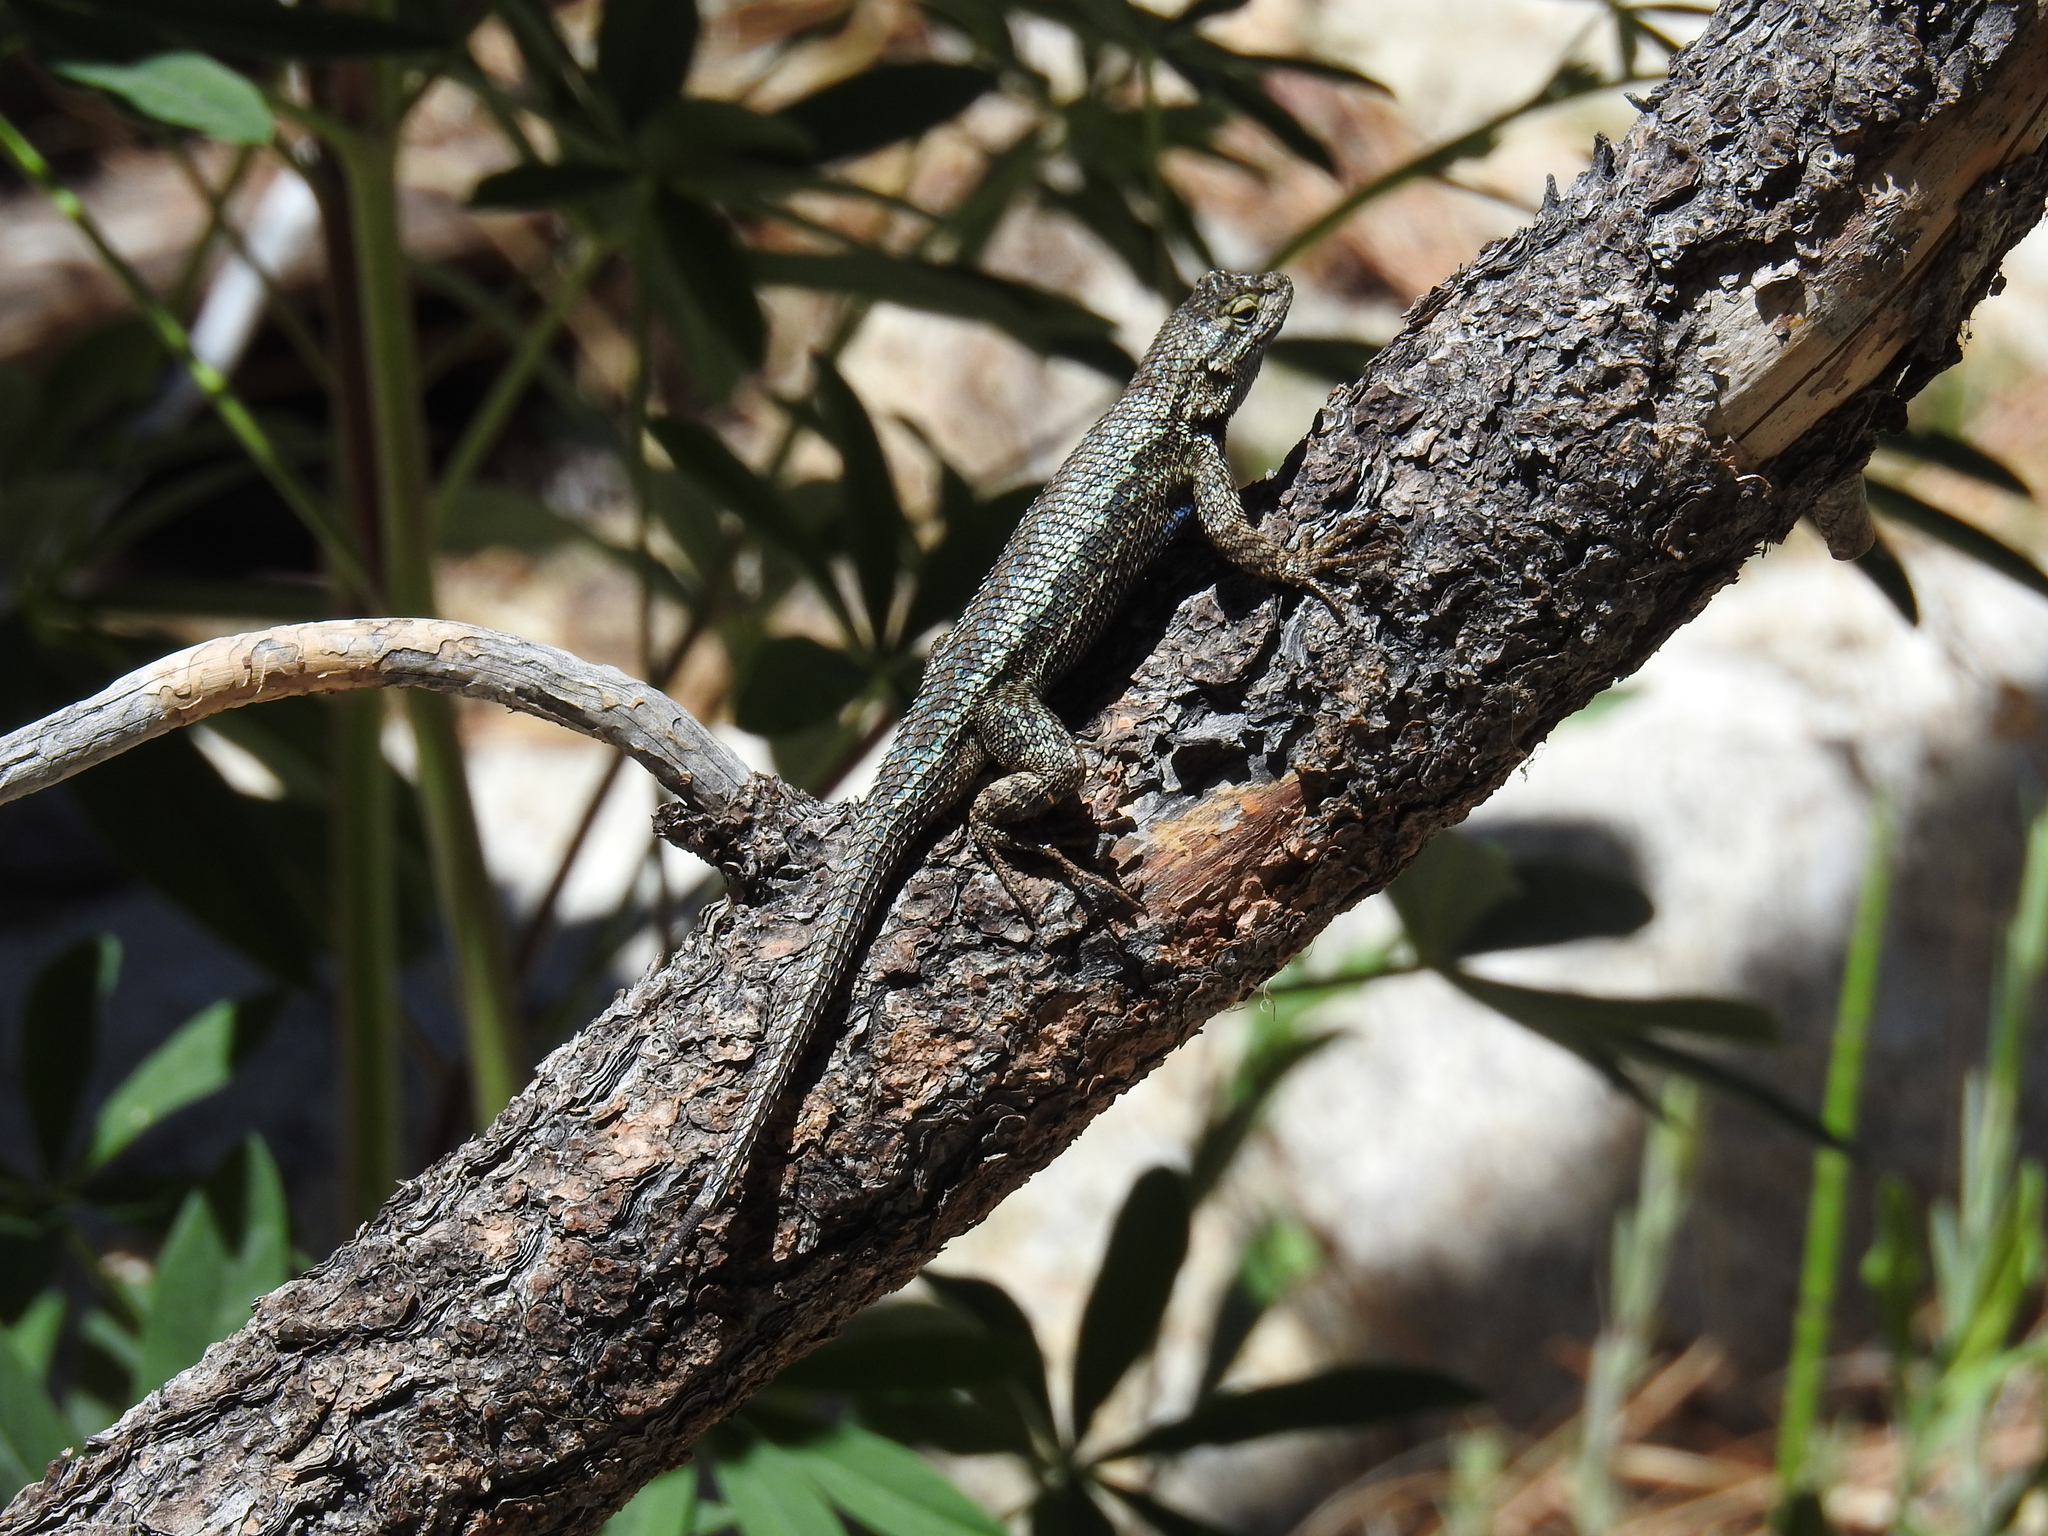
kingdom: Animalia
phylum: Chordata
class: Squamata
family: Phrynosomatidae
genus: Sceloporus
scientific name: Sceloporus occidentalis
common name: Western fence lizard
